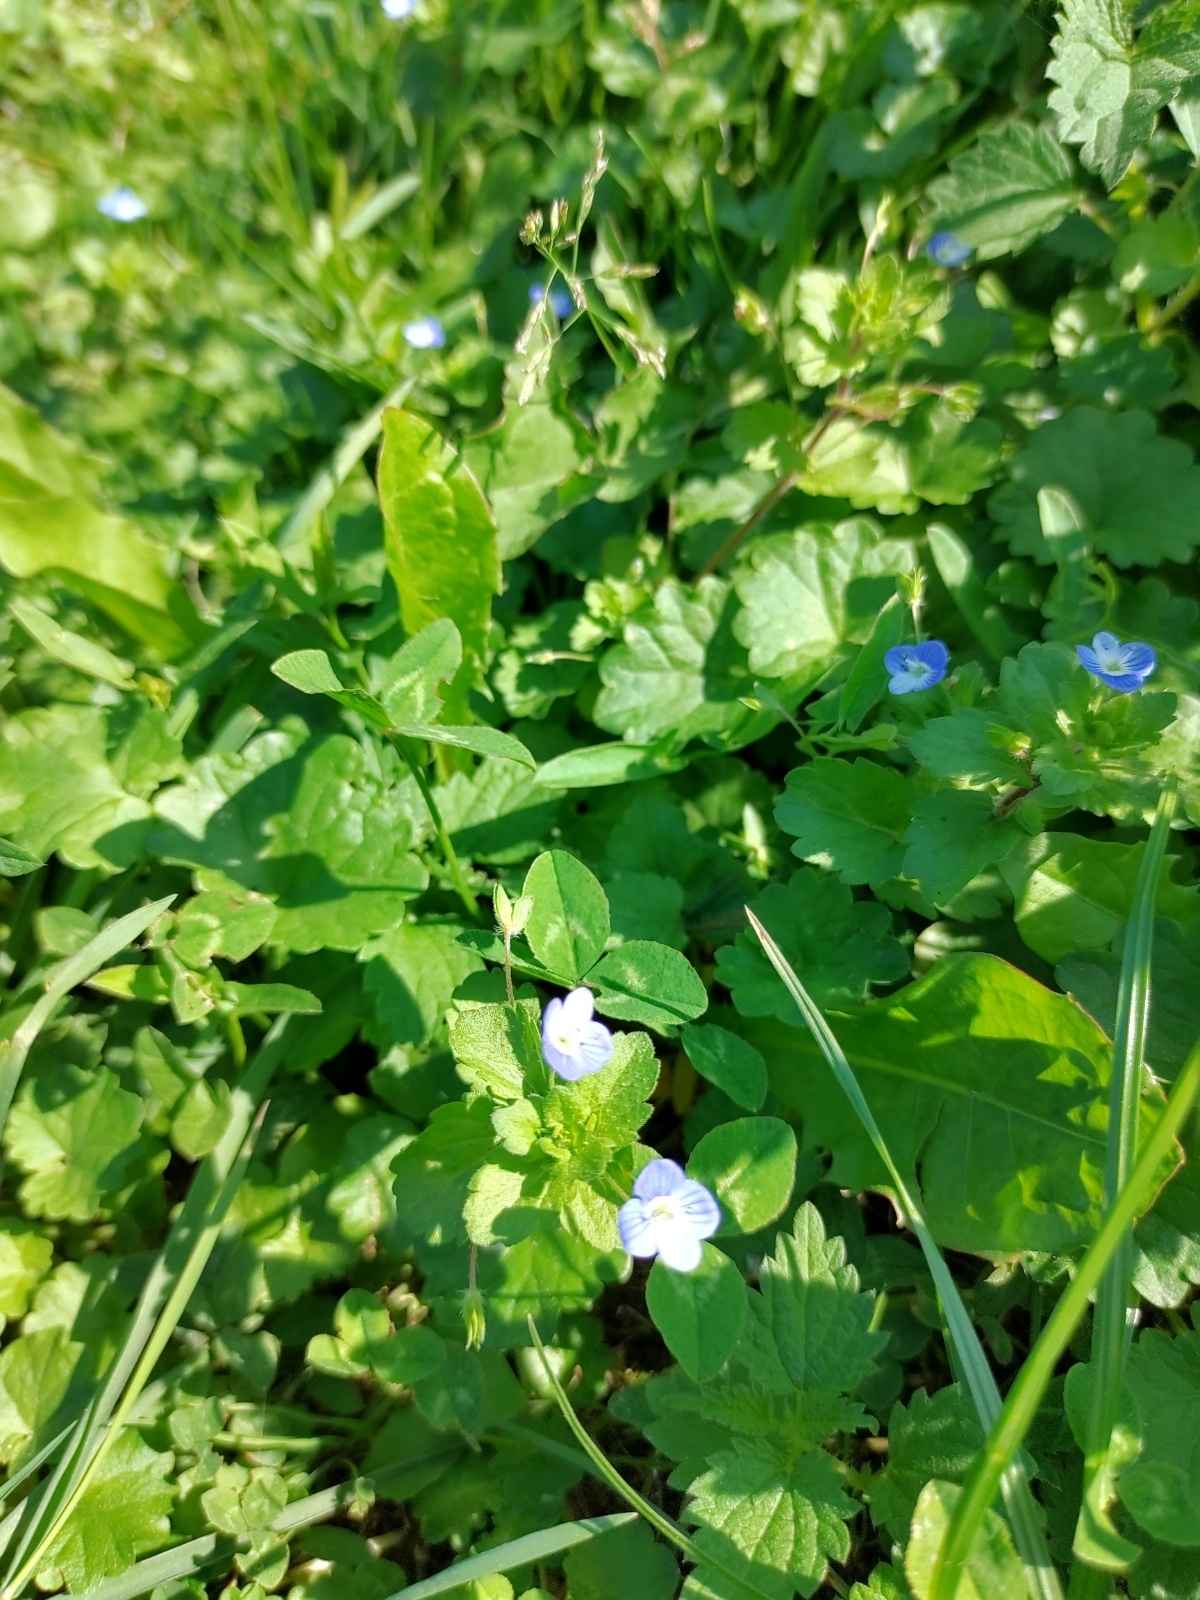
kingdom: Plantae
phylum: Tracheophyta
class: Magnoliopsida
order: Lamiales
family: Plantaginaceae
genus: Veronica
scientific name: Veronica persica
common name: Common field-speedwell
